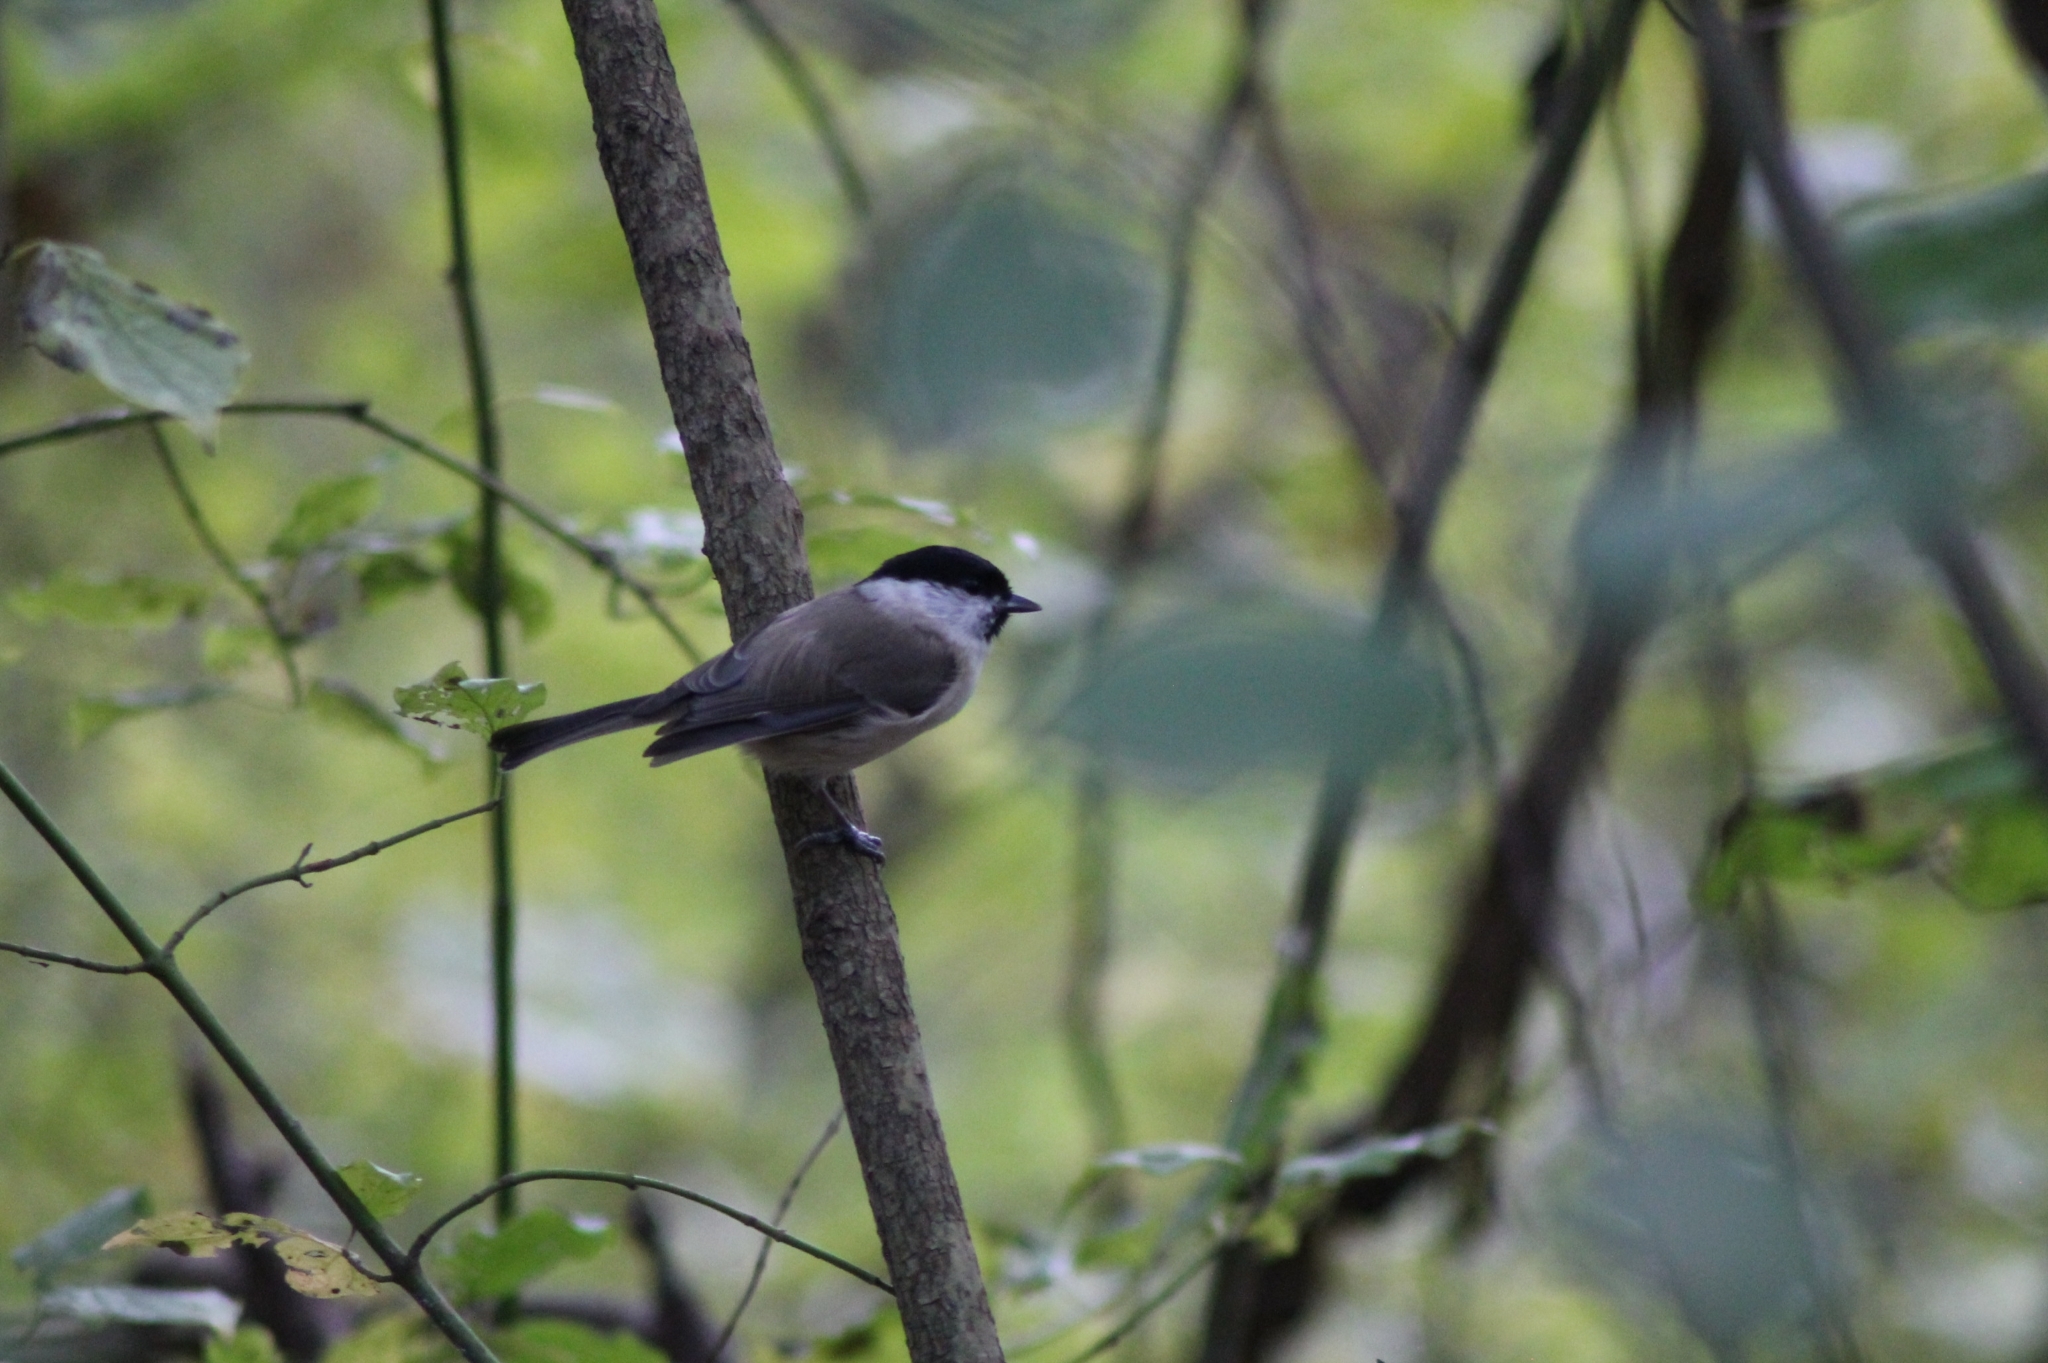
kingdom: Animalia
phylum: Chordata
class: Aves
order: Passeriformes
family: Paridae
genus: Poecile
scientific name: Poecile palustris
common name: Marsh tit
